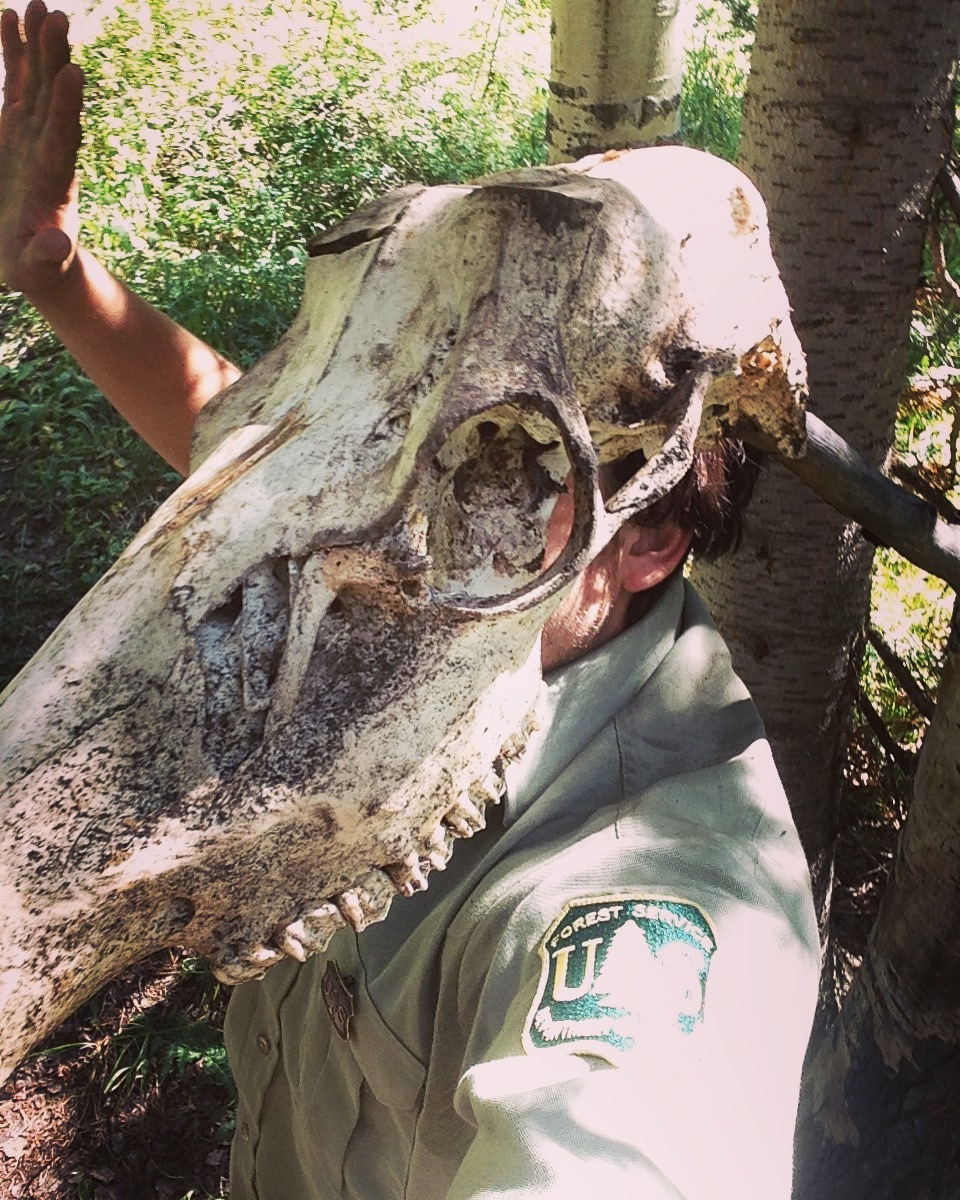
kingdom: Animalia
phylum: Chordata
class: Mammalia
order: Artiodactyla
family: Cervidae
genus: Cervus
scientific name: Cervus elaphus
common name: Red deer
